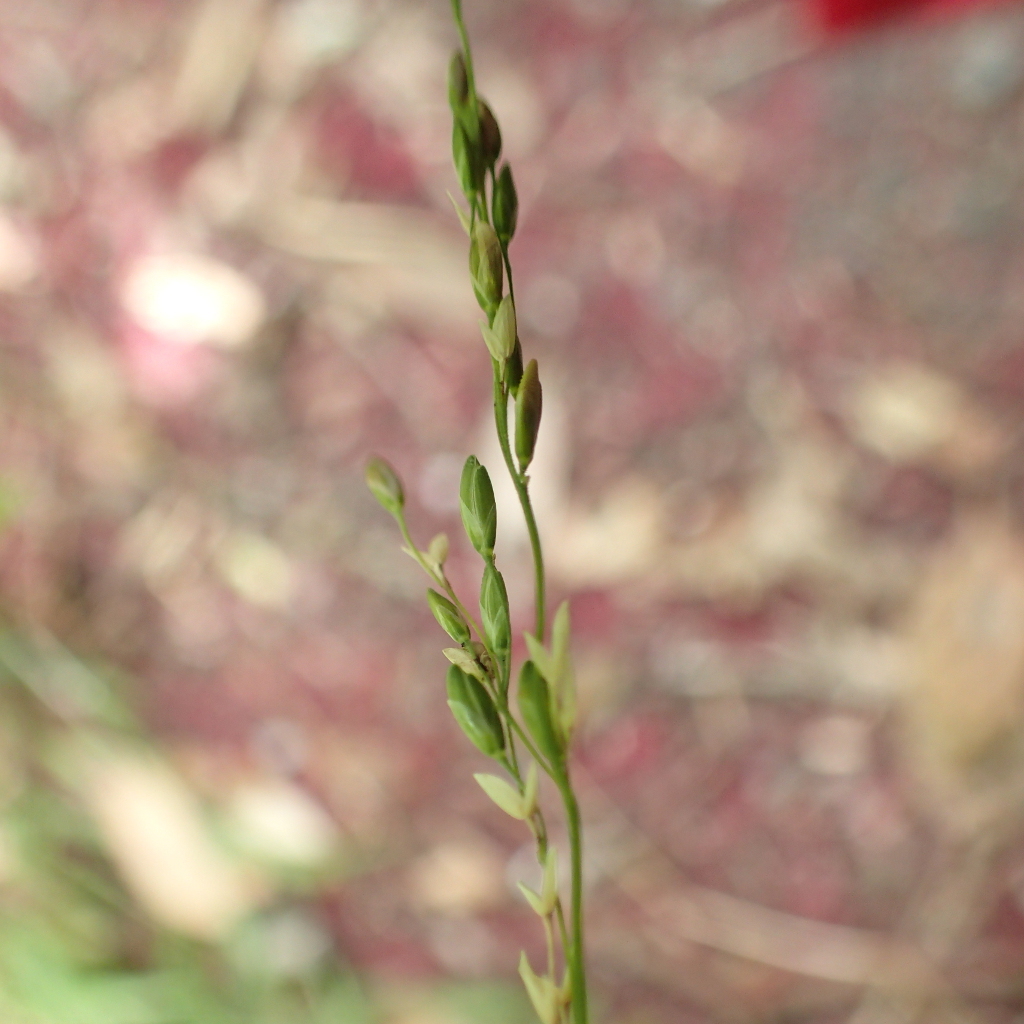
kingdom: Plantae
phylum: Tracheophyta
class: Liliopsida
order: Poales
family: Poaceae
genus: Ehrharta
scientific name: Ehrharta erecta
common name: Panic veldtgrass
